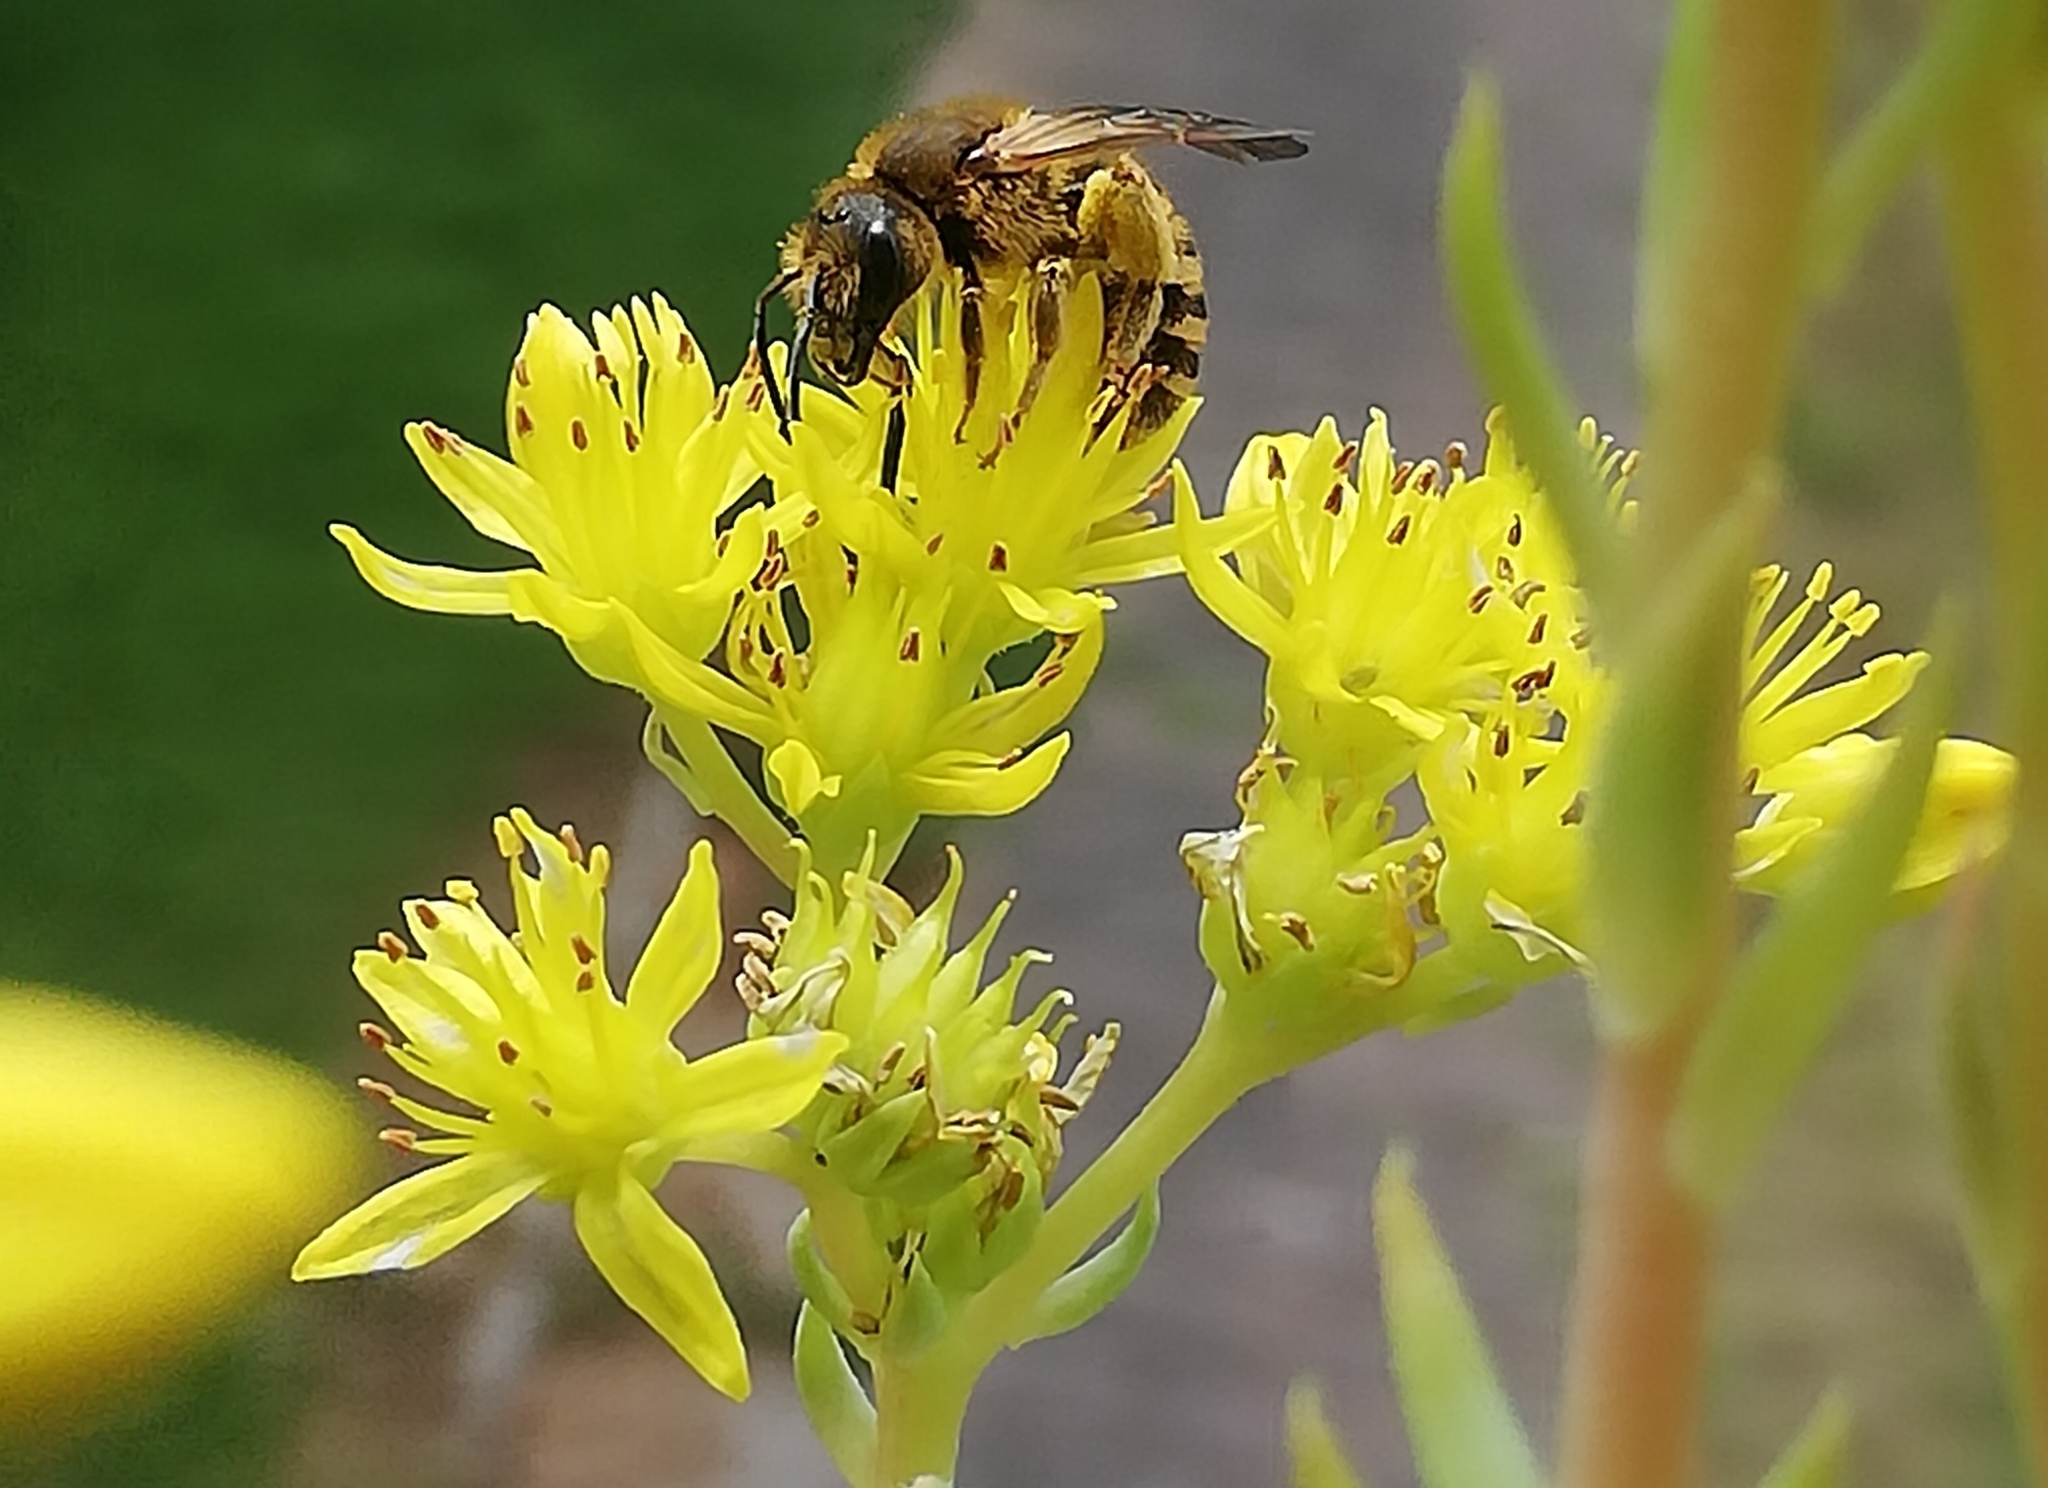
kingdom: Animalia
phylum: Arthropoda
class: Insecta
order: Hymenoptera
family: Halictidae
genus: Halictus
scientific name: Halictus scabiosae
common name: Great banded furrow bee
